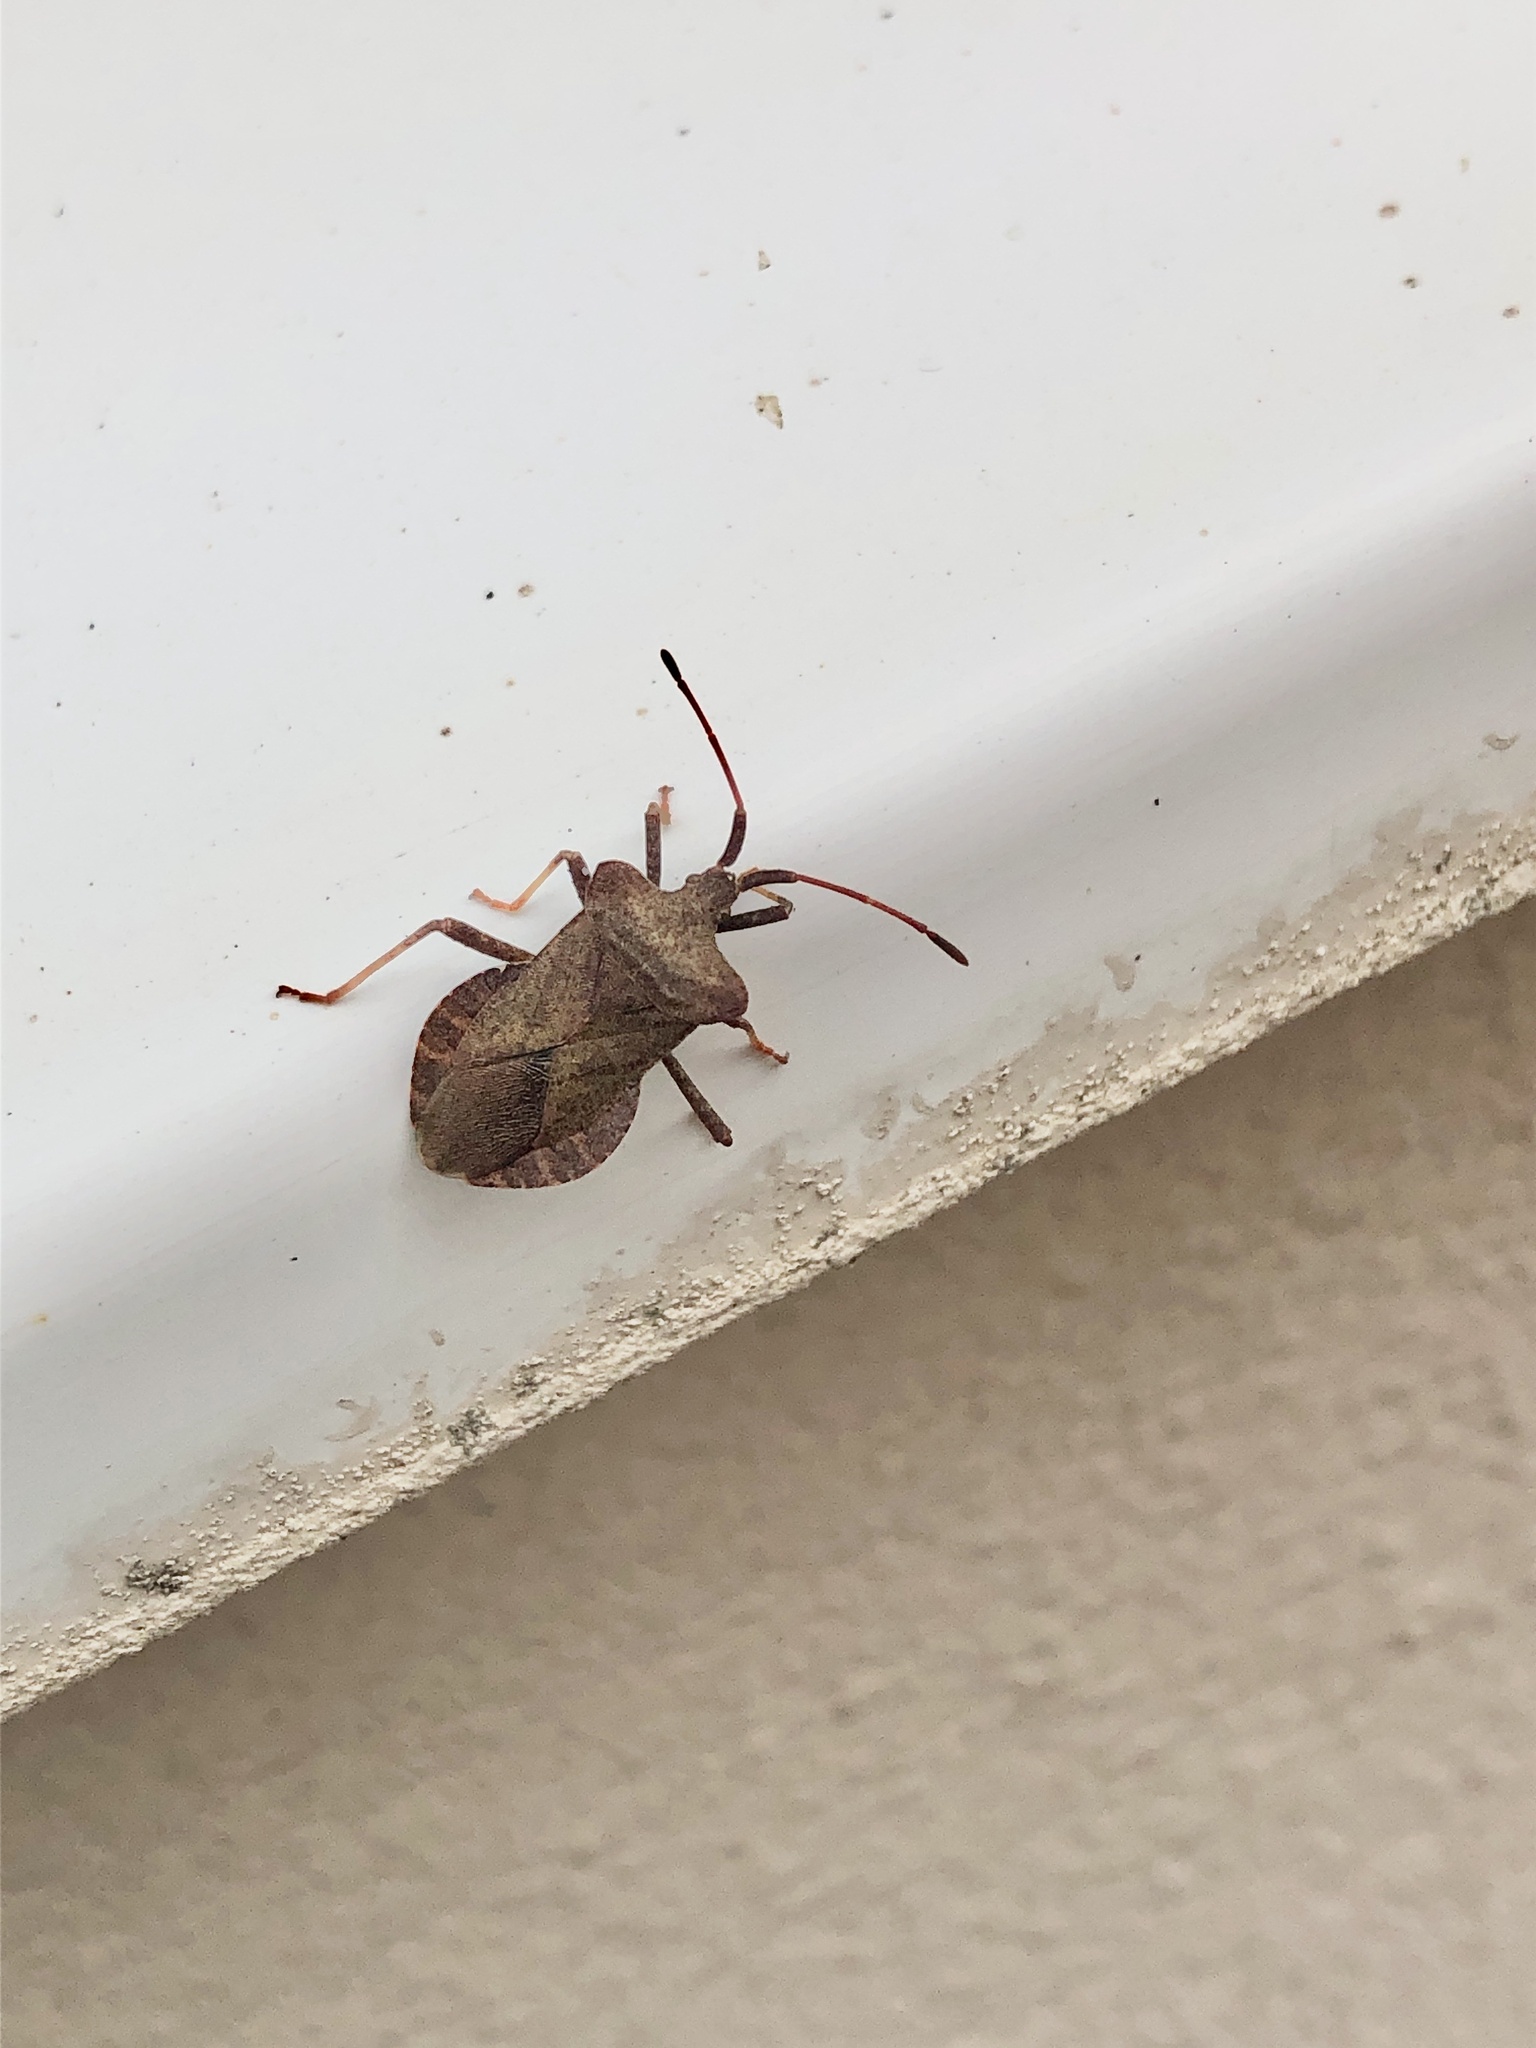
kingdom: Animalia
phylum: Arthropoda
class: Insecta
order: Hemiptera
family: Coreidae
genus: Coreus
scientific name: Coreus marginatus
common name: Dock bug
